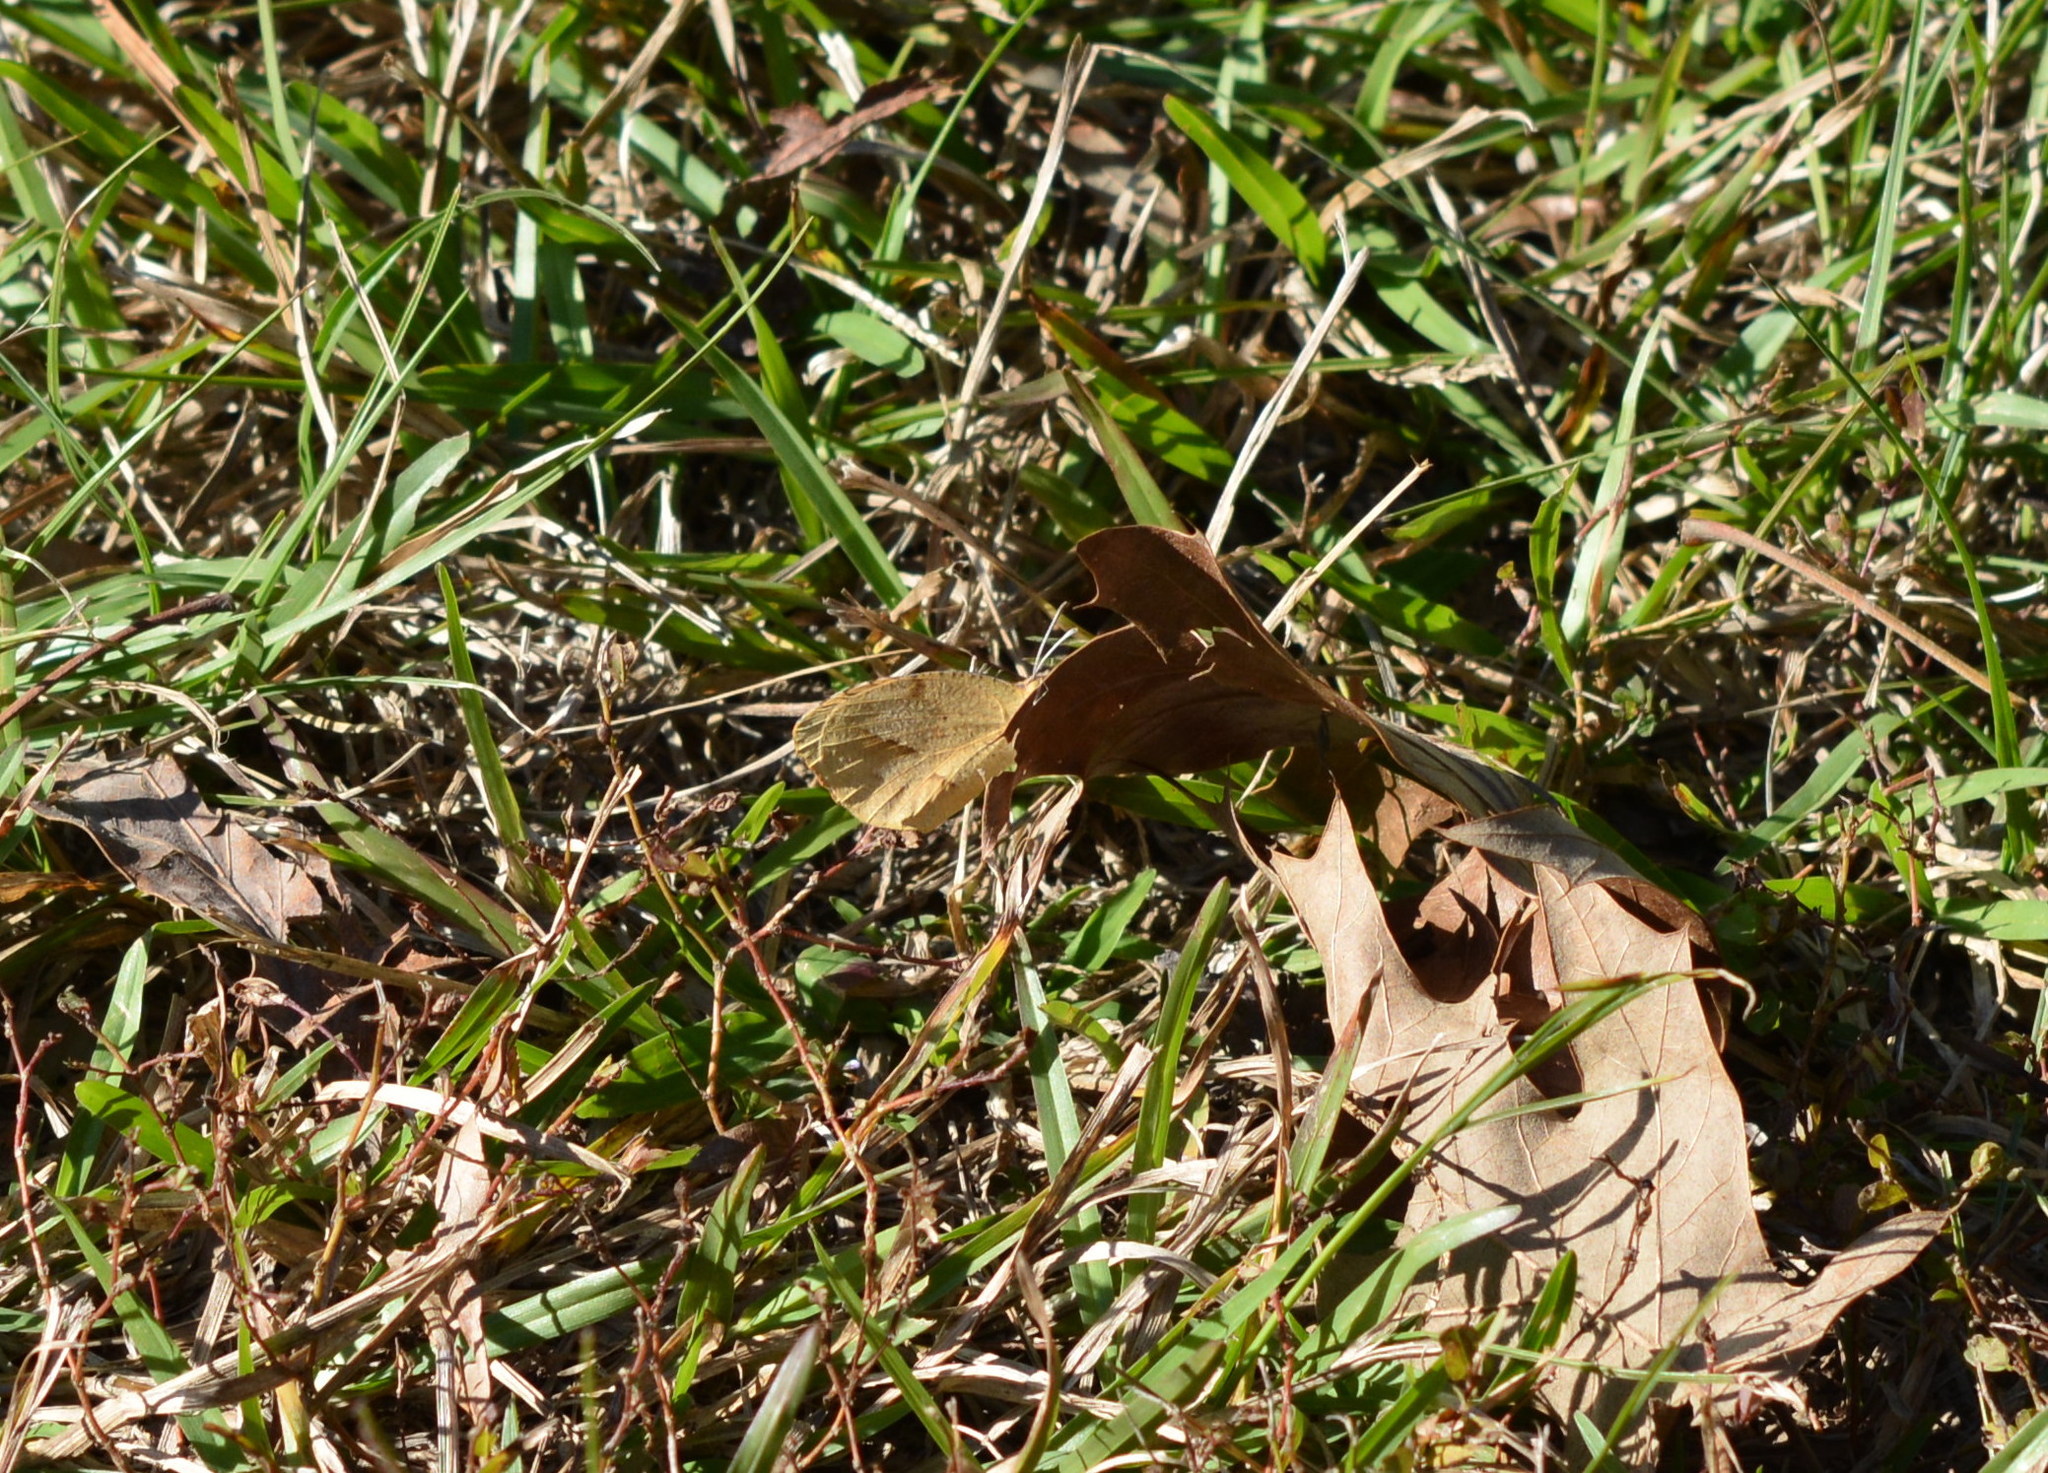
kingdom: Animalia
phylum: Arthropoda
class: Insecta
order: Lepidoptera
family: Pieridae
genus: Abaeis
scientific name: Abaeis nicippe
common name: Sleepy orange
